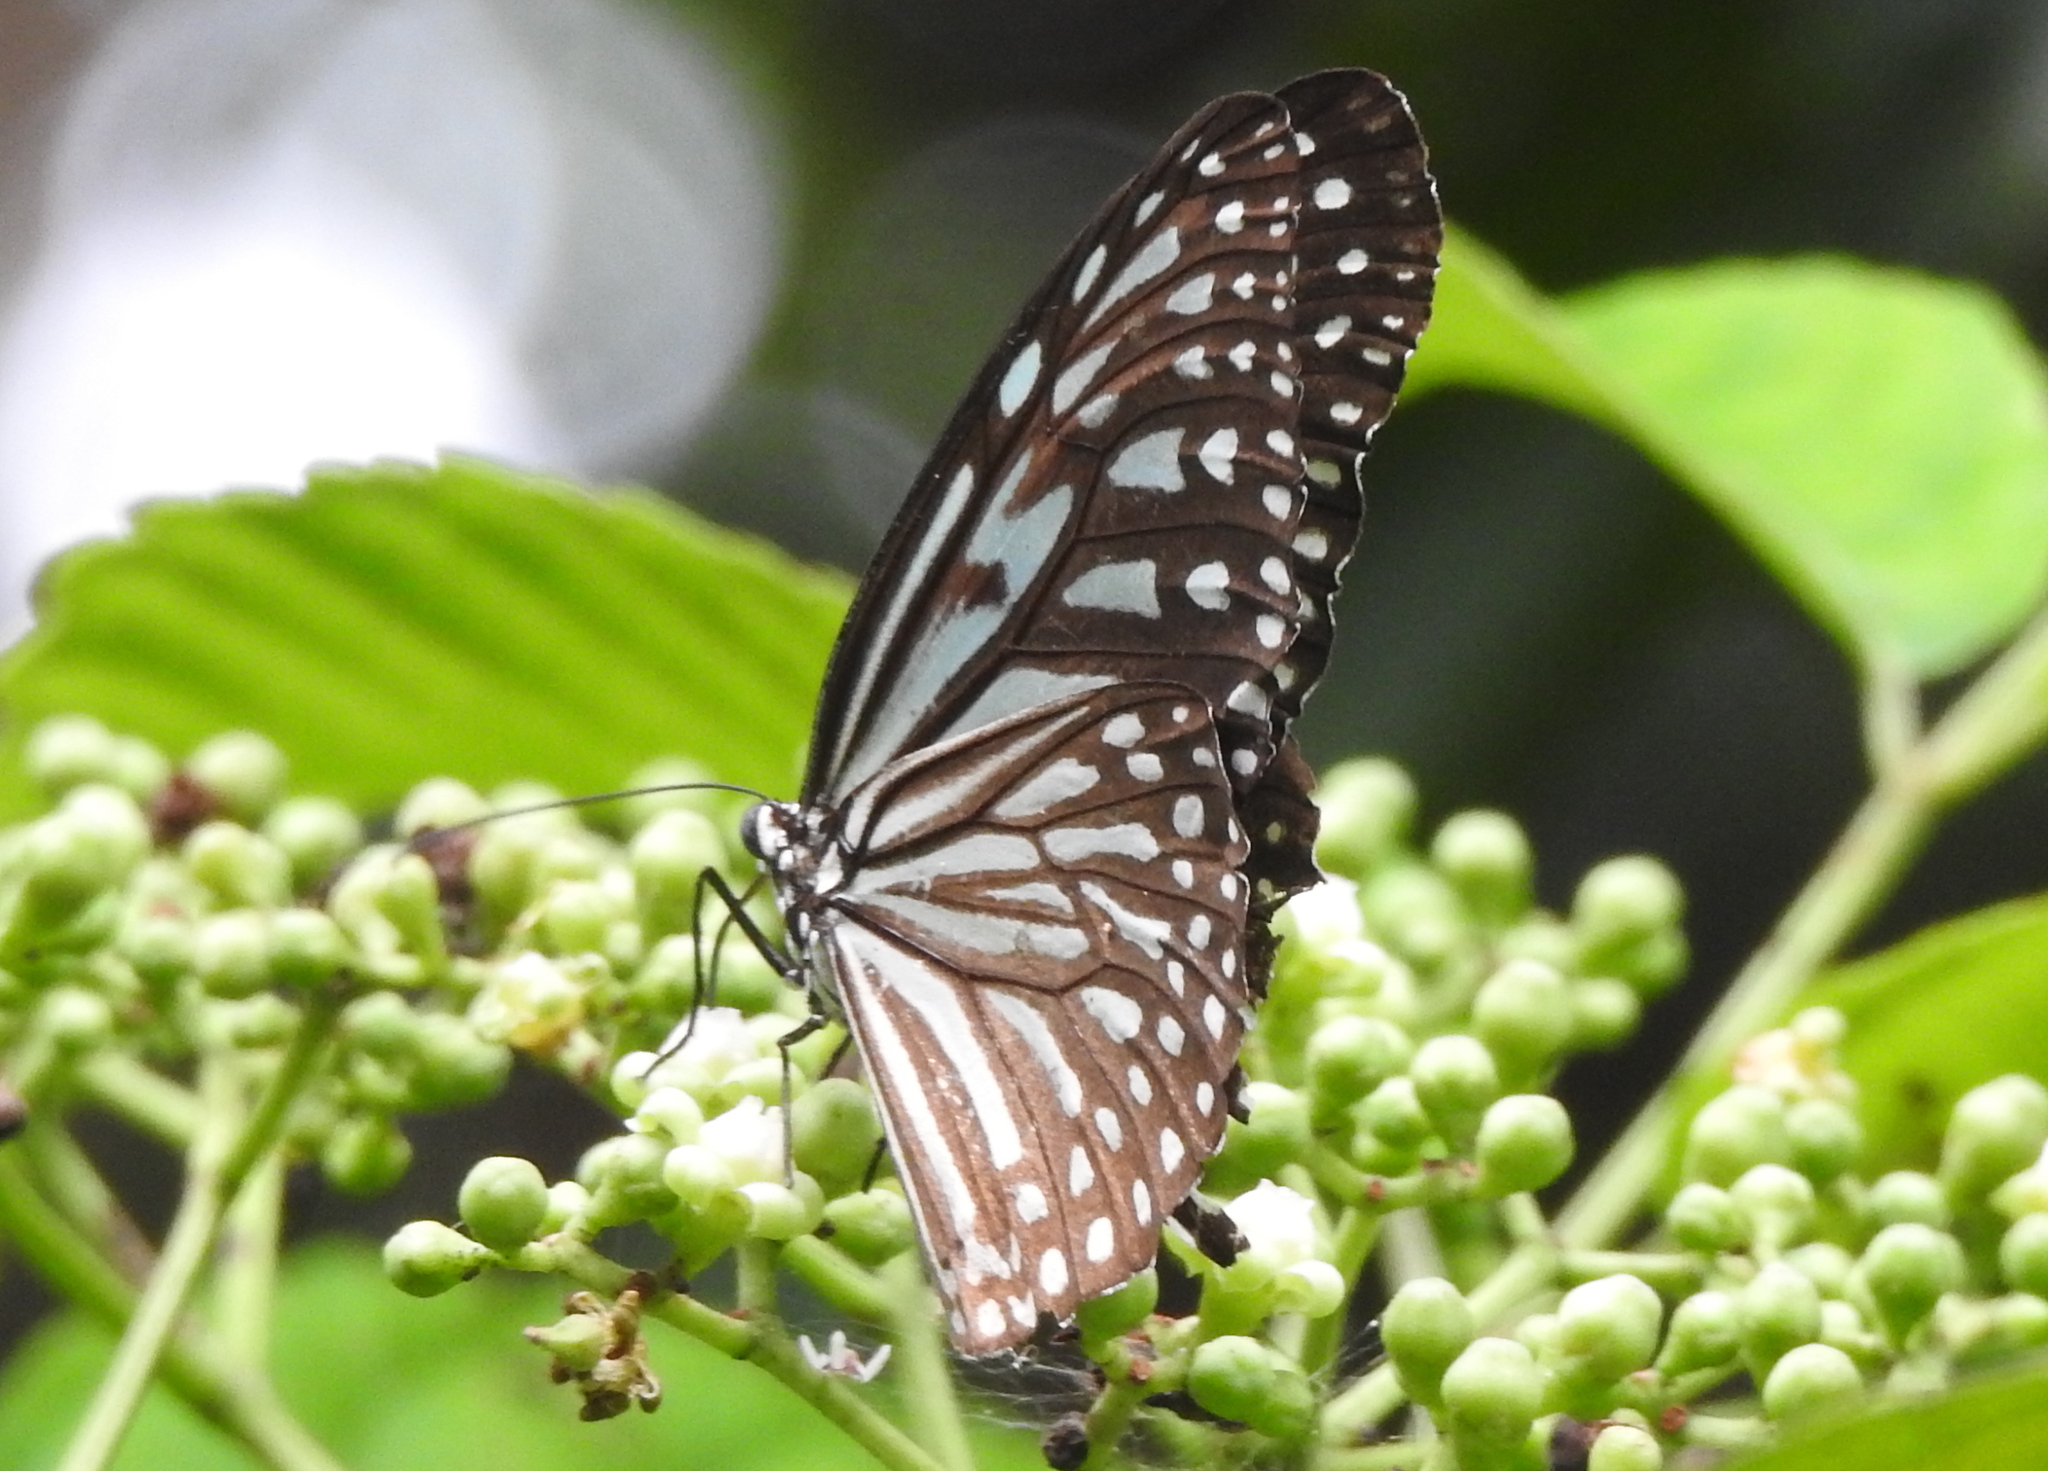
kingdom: Animalia
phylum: Arthropoda
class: Insecta
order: Lepidoptera
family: Nymphalidae
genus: Ideopsis
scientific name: Ideopsis vulgaris
